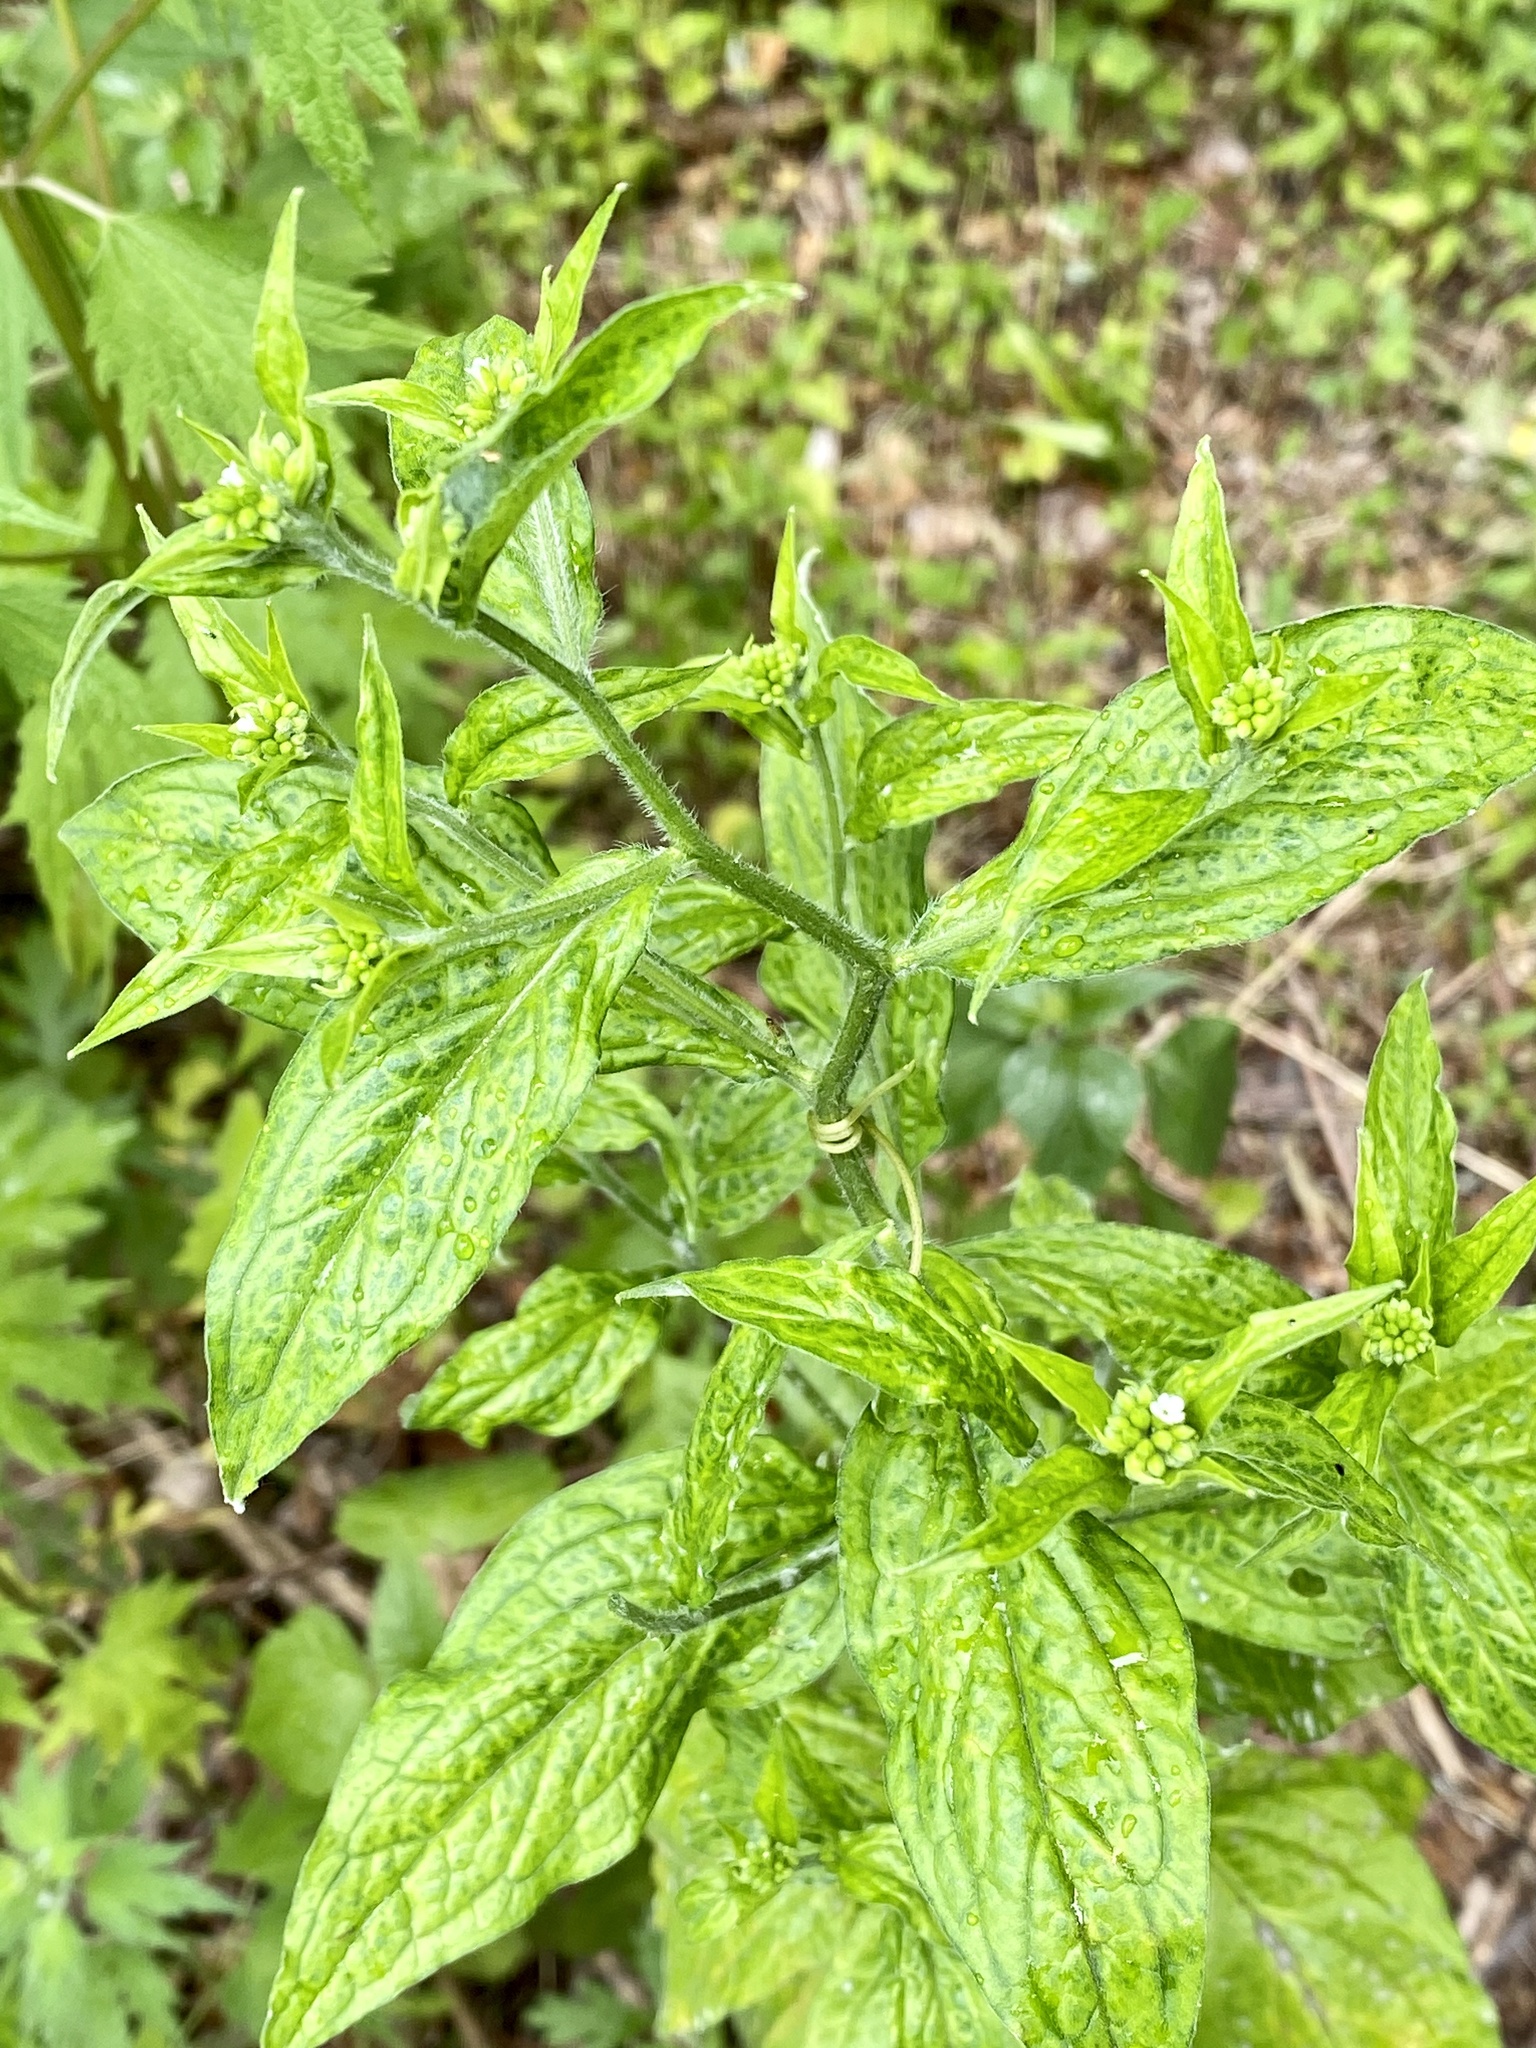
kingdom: Plantae
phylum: Tracheophyta
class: Magnoliopsida
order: Boraginales
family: Boraginaceae
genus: Hackelia
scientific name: Hackelia virginiana
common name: Beggar's-lice
